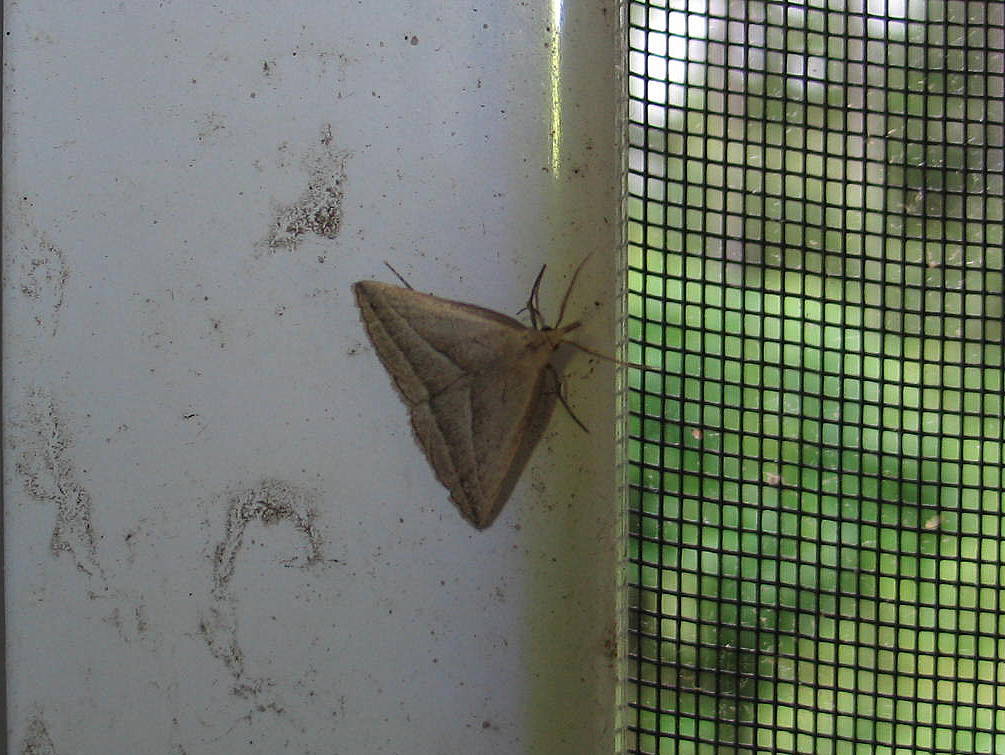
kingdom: Animalia
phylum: Arthropoda
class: Insecta
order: Lepidoptera
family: Erebidae
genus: Macrochilo
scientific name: Macrochilo absorptalis
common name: Slant-lined owlet
